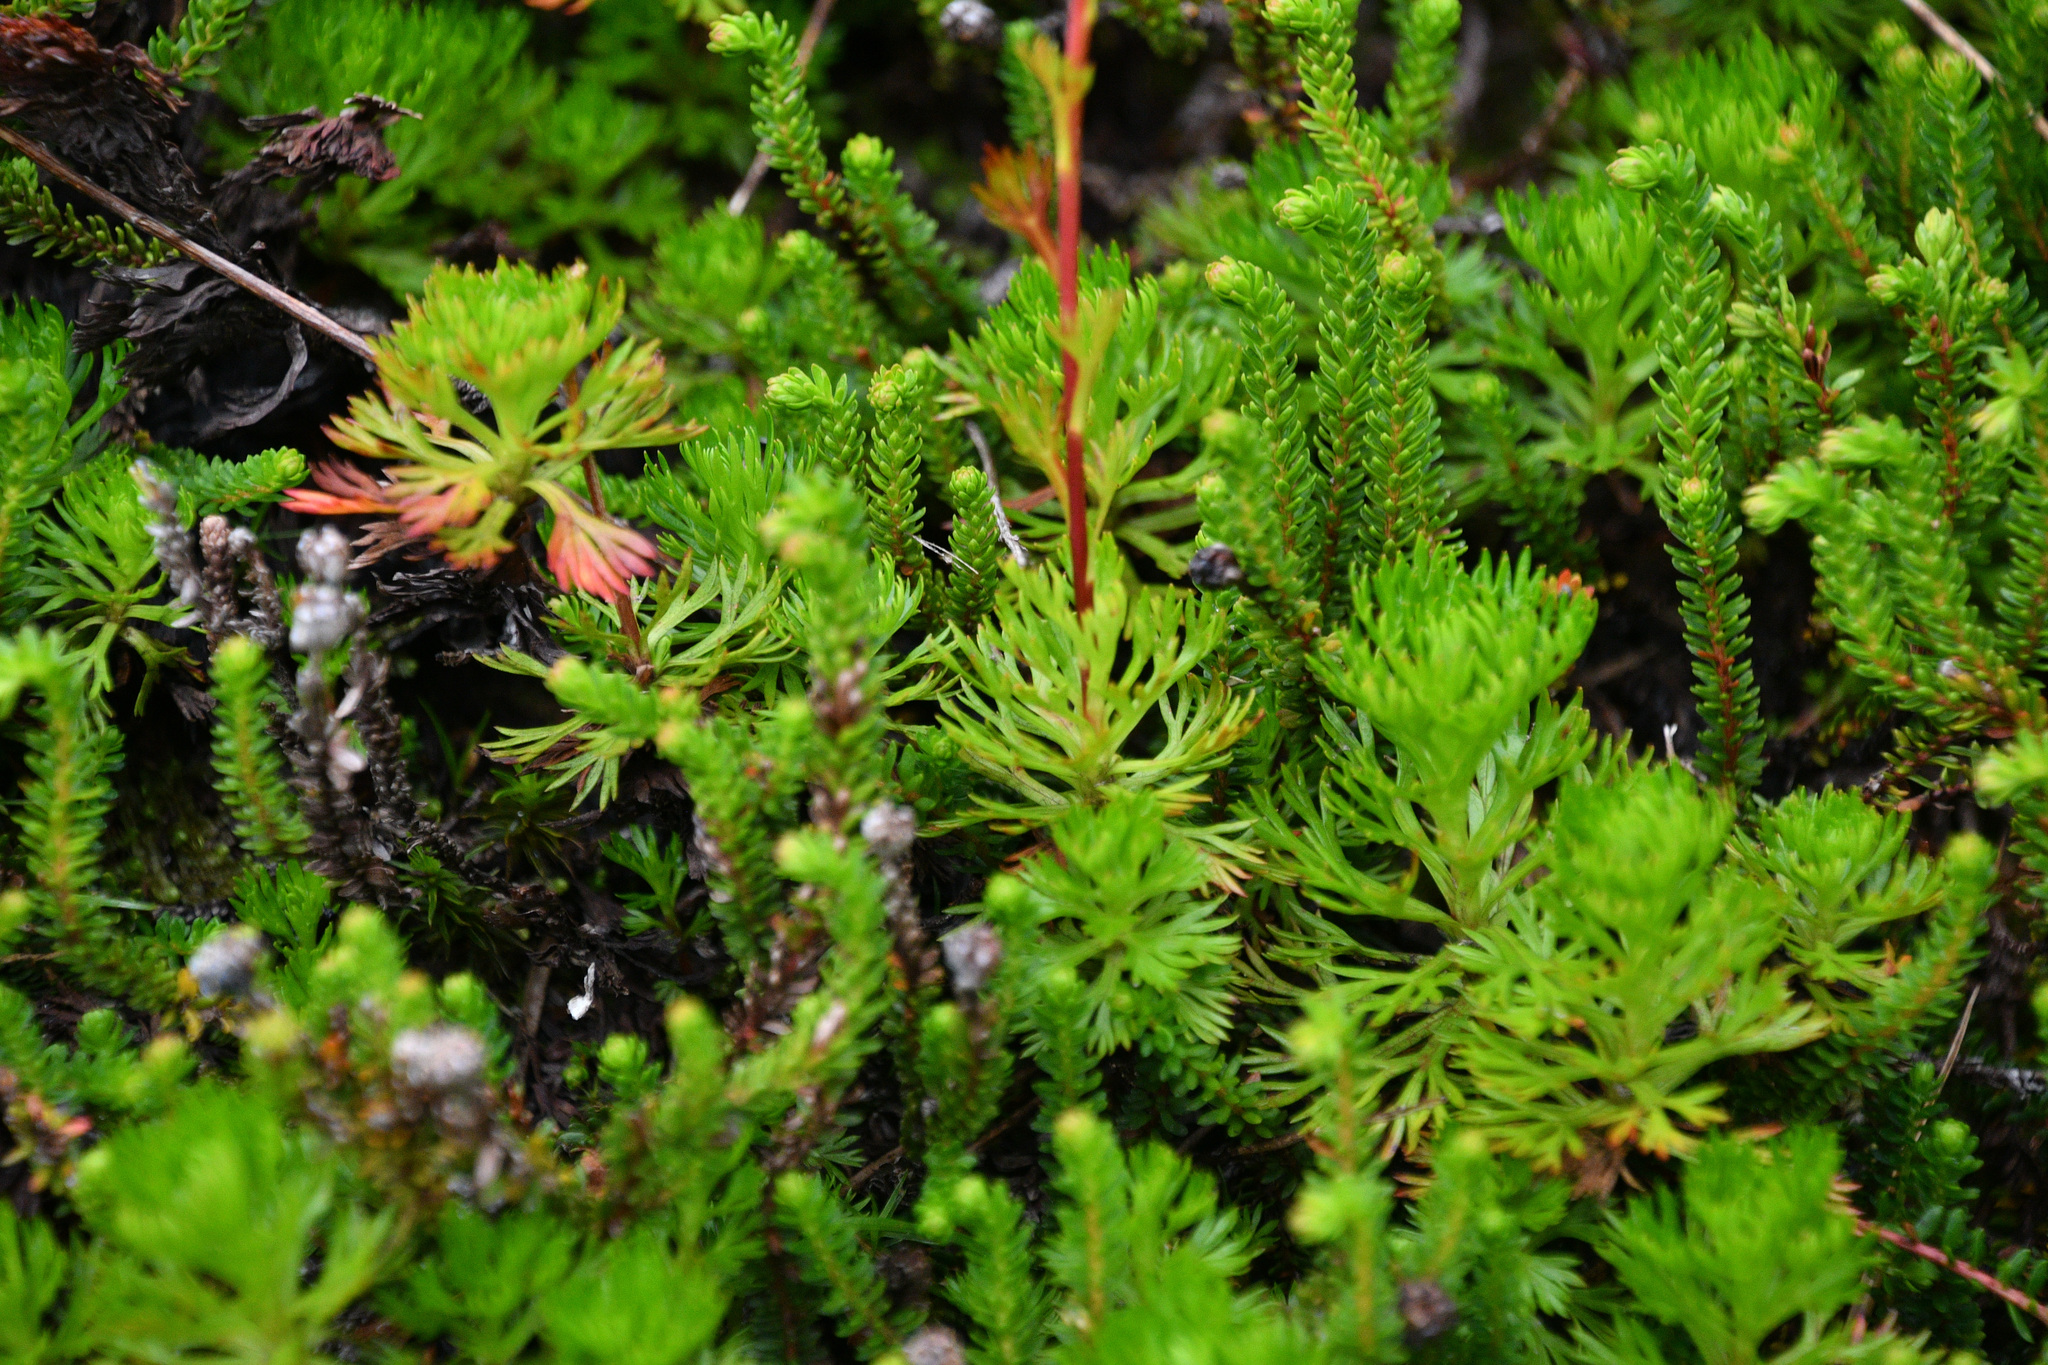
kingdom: Plantae
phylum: Tracheophyta
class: Magnoliopsida
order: Rosales
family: Rosaceae
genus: Luetkea
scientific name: Luetkea pectinata
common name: Partridgefoot
